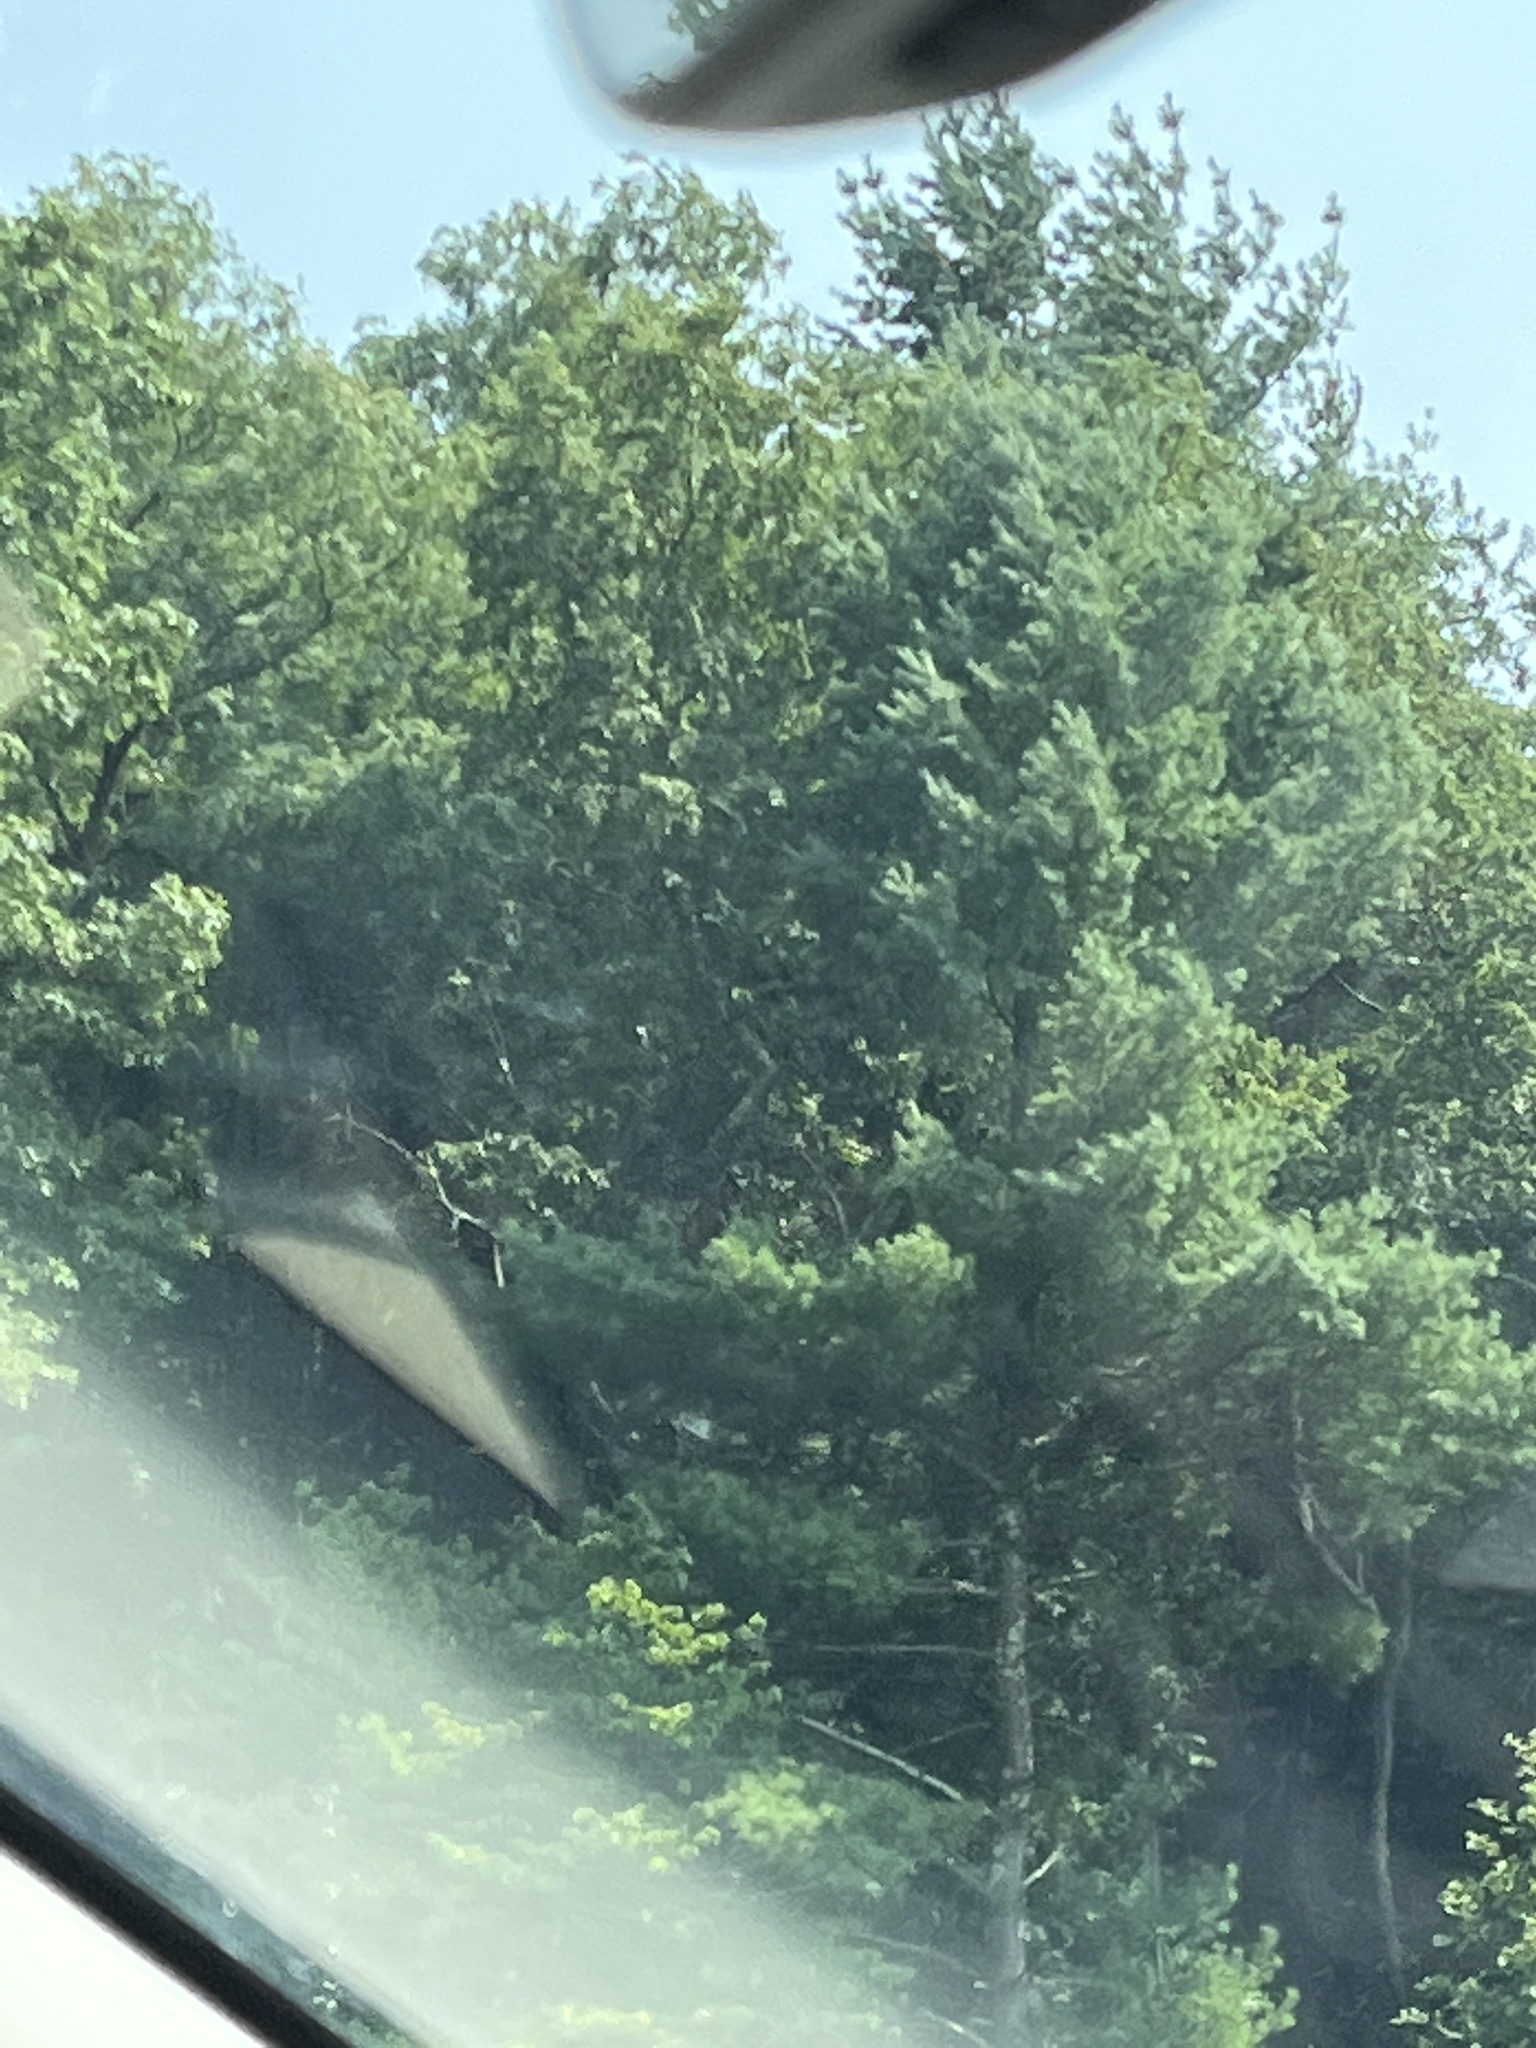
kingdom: Plantae
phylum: Tracheophyta
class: Pinopsida
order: Pinales
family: Pinaceae
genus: Pinus
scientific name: Pinus strobus
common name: Weymouth pine
